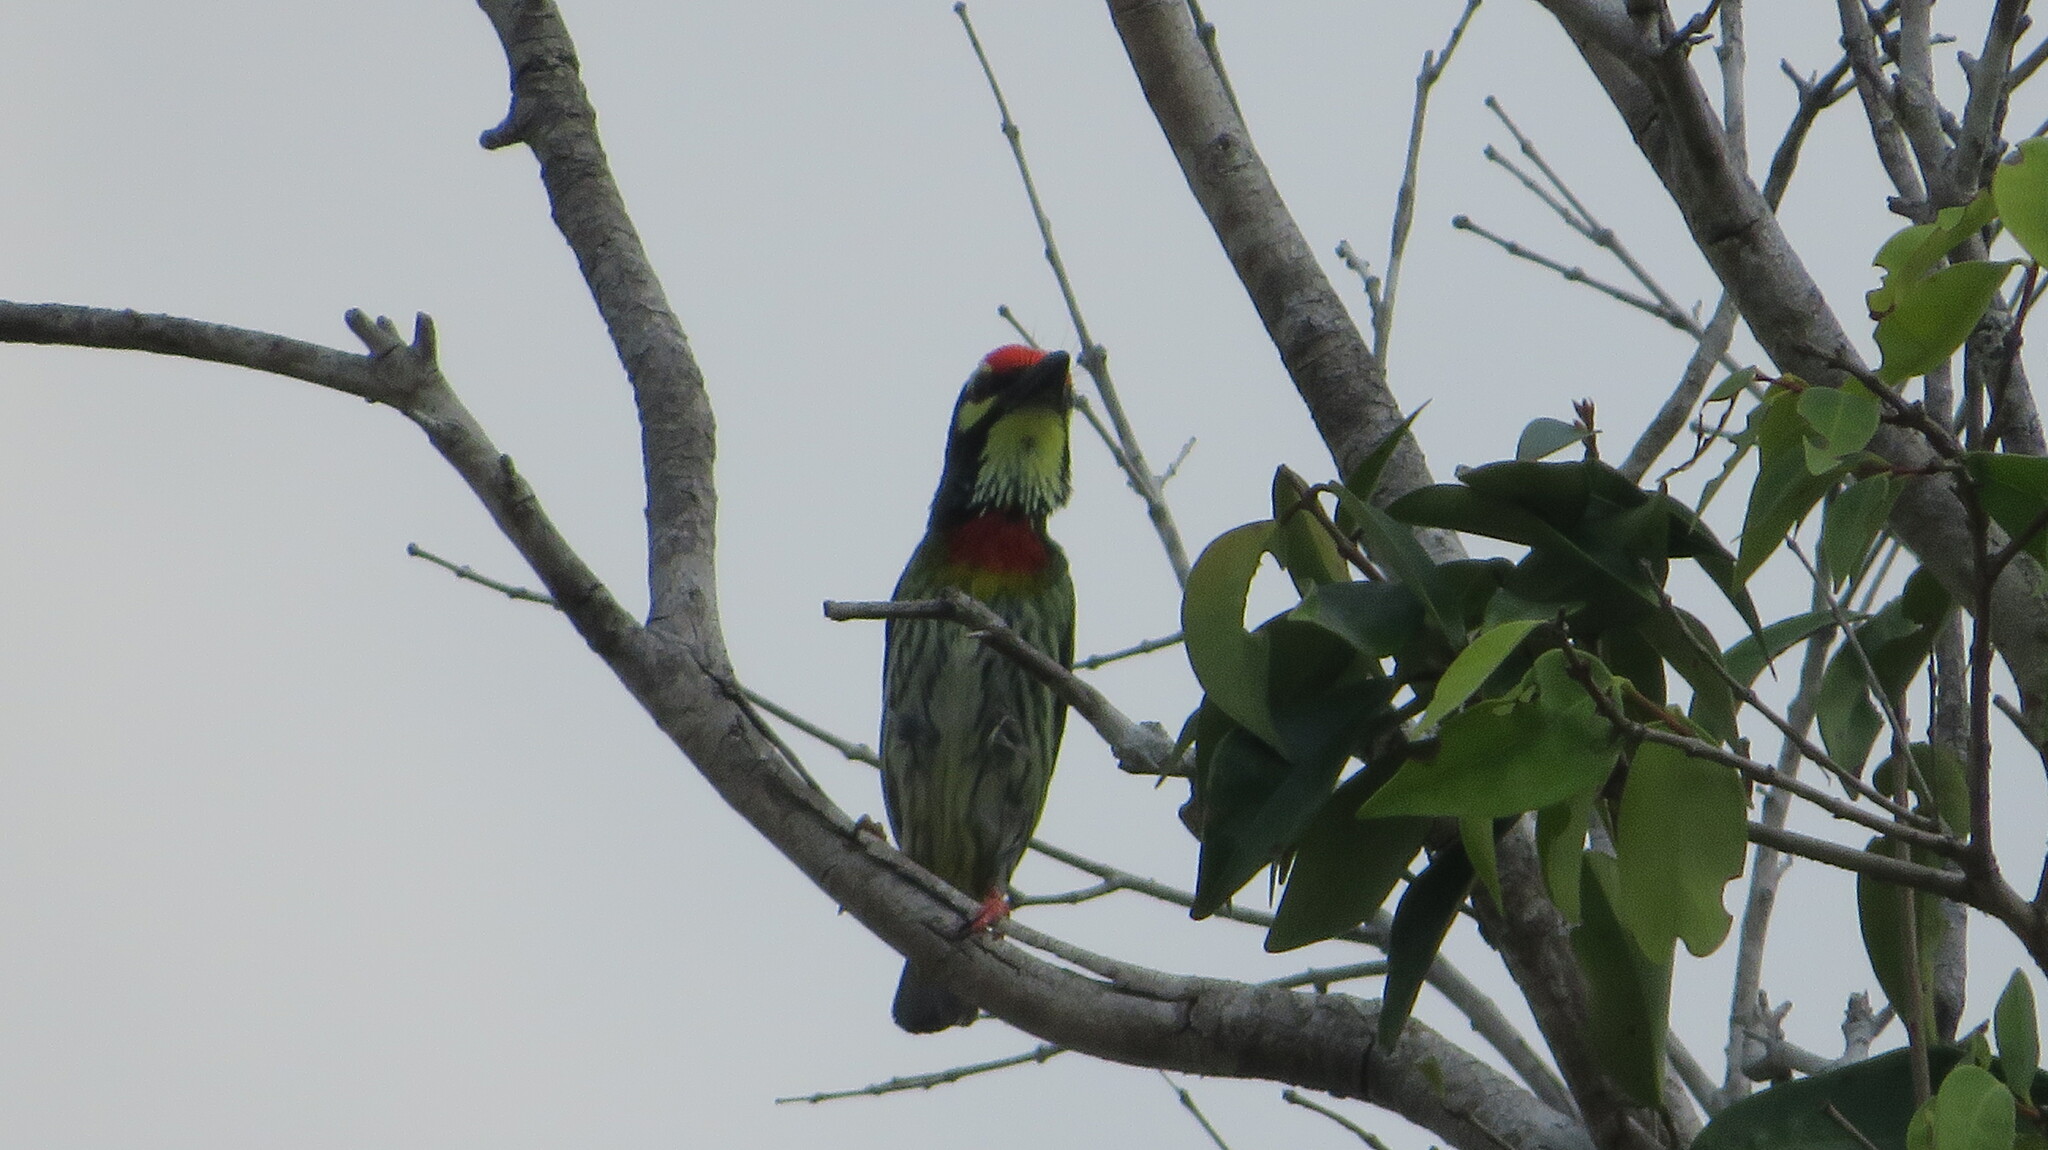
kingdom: Animalia
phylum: Chordata
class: Aves
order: Piciformes
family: Megalaimidae
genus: Psilopogon
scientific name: Psilopogon haemacephalus
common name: Coppersmith barbet
